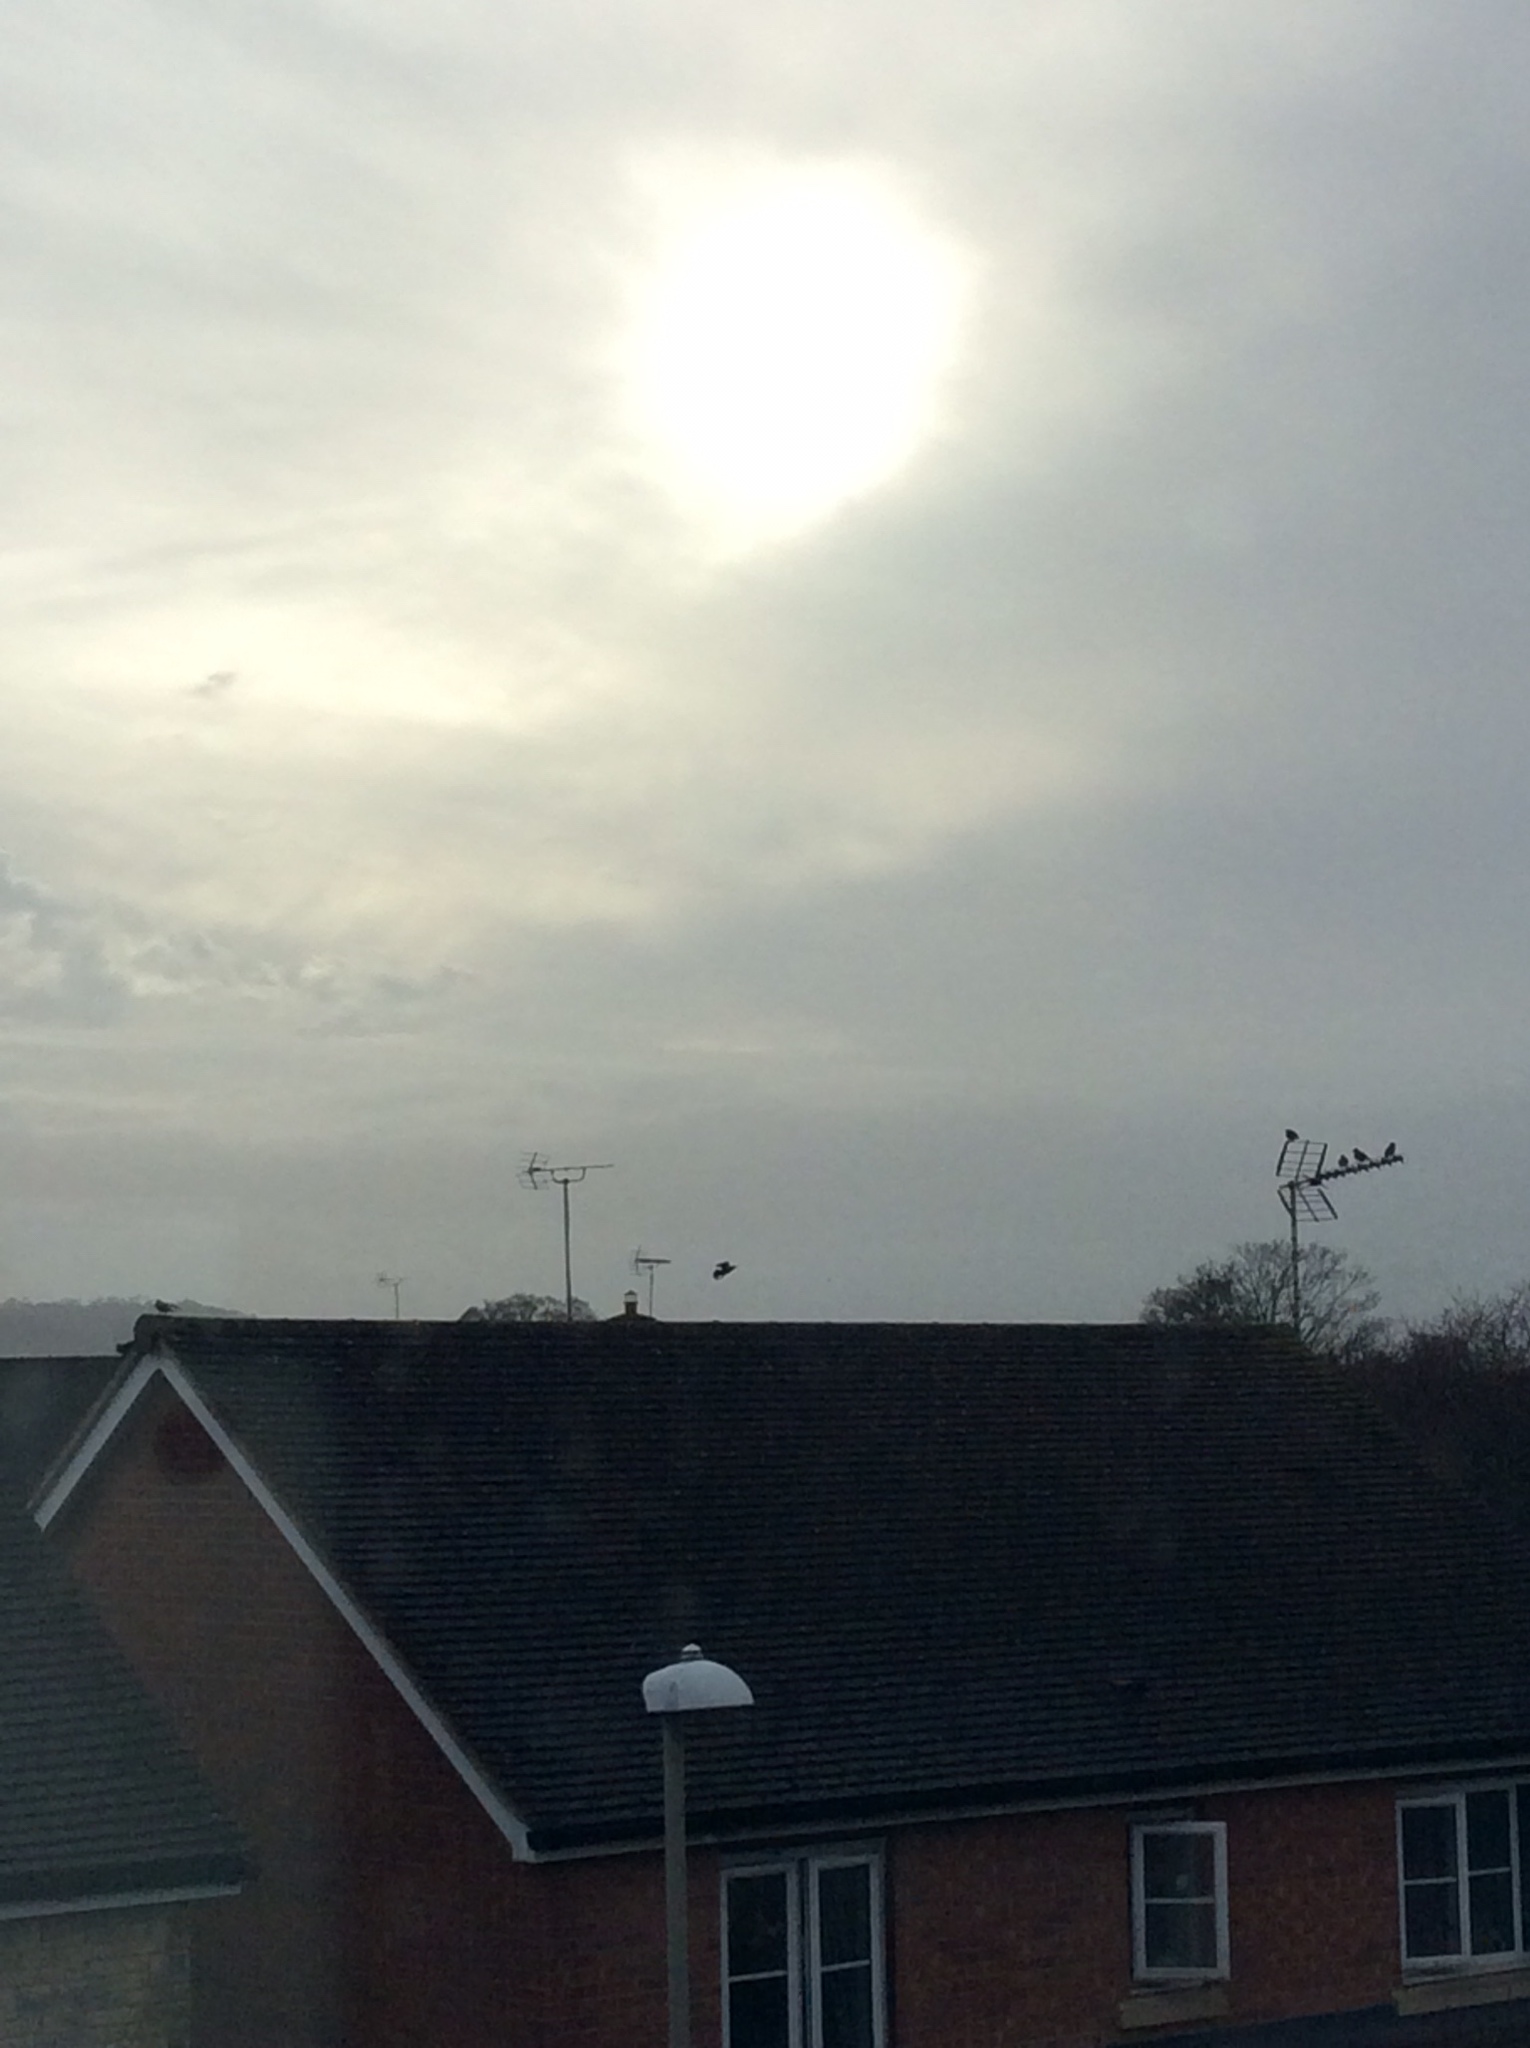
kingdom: Animalia
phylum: Chordata
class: Aves
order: Passeriformes
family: Sturnidae
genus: Sturnus
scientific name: Sturnus vulgaris
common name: Common starling
